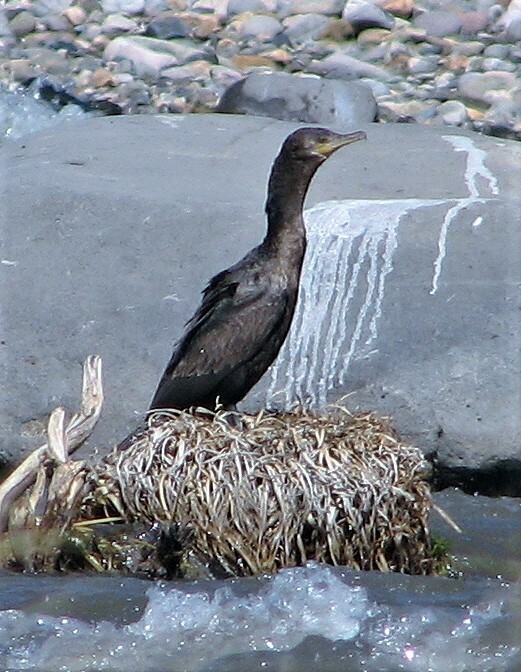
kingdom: Animalia
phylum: Chordata
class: Aves
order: Suliformes
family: Phalacrocoracidae
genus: Phalacrocorax
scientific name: Phalacrocorax brasilianus
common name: Neotropic cormorant
